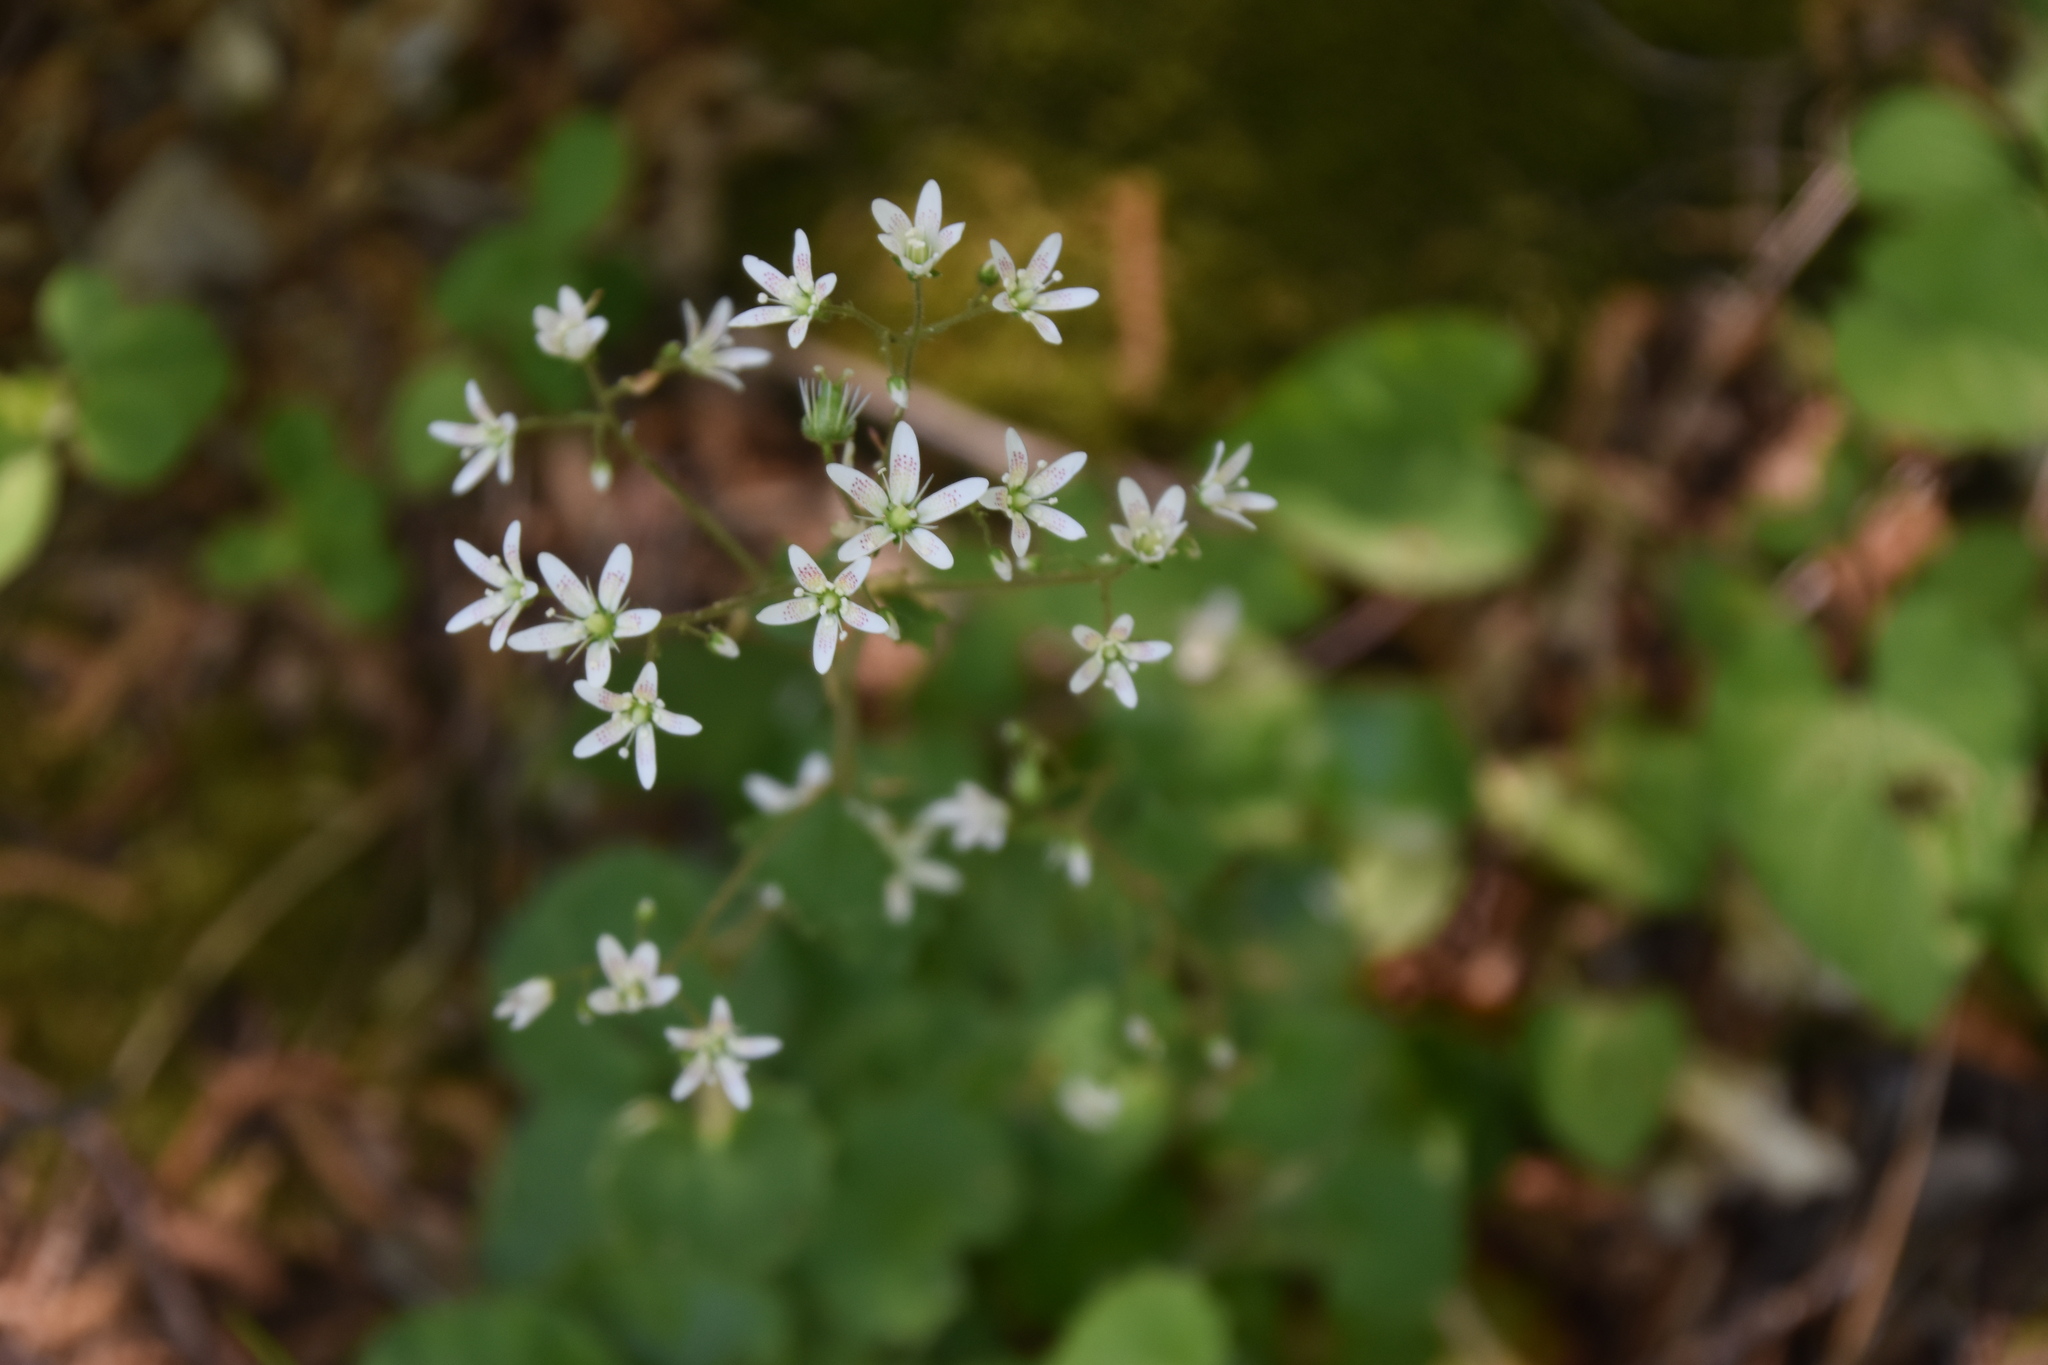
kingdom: Plantae
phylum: Tracheophyta
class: Magnoliopsida
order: Saxifragales
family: Saxifragaceae
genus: Saxifraga
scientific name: Saxifraga rotundifolia
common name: Round-leaved saxifrage
